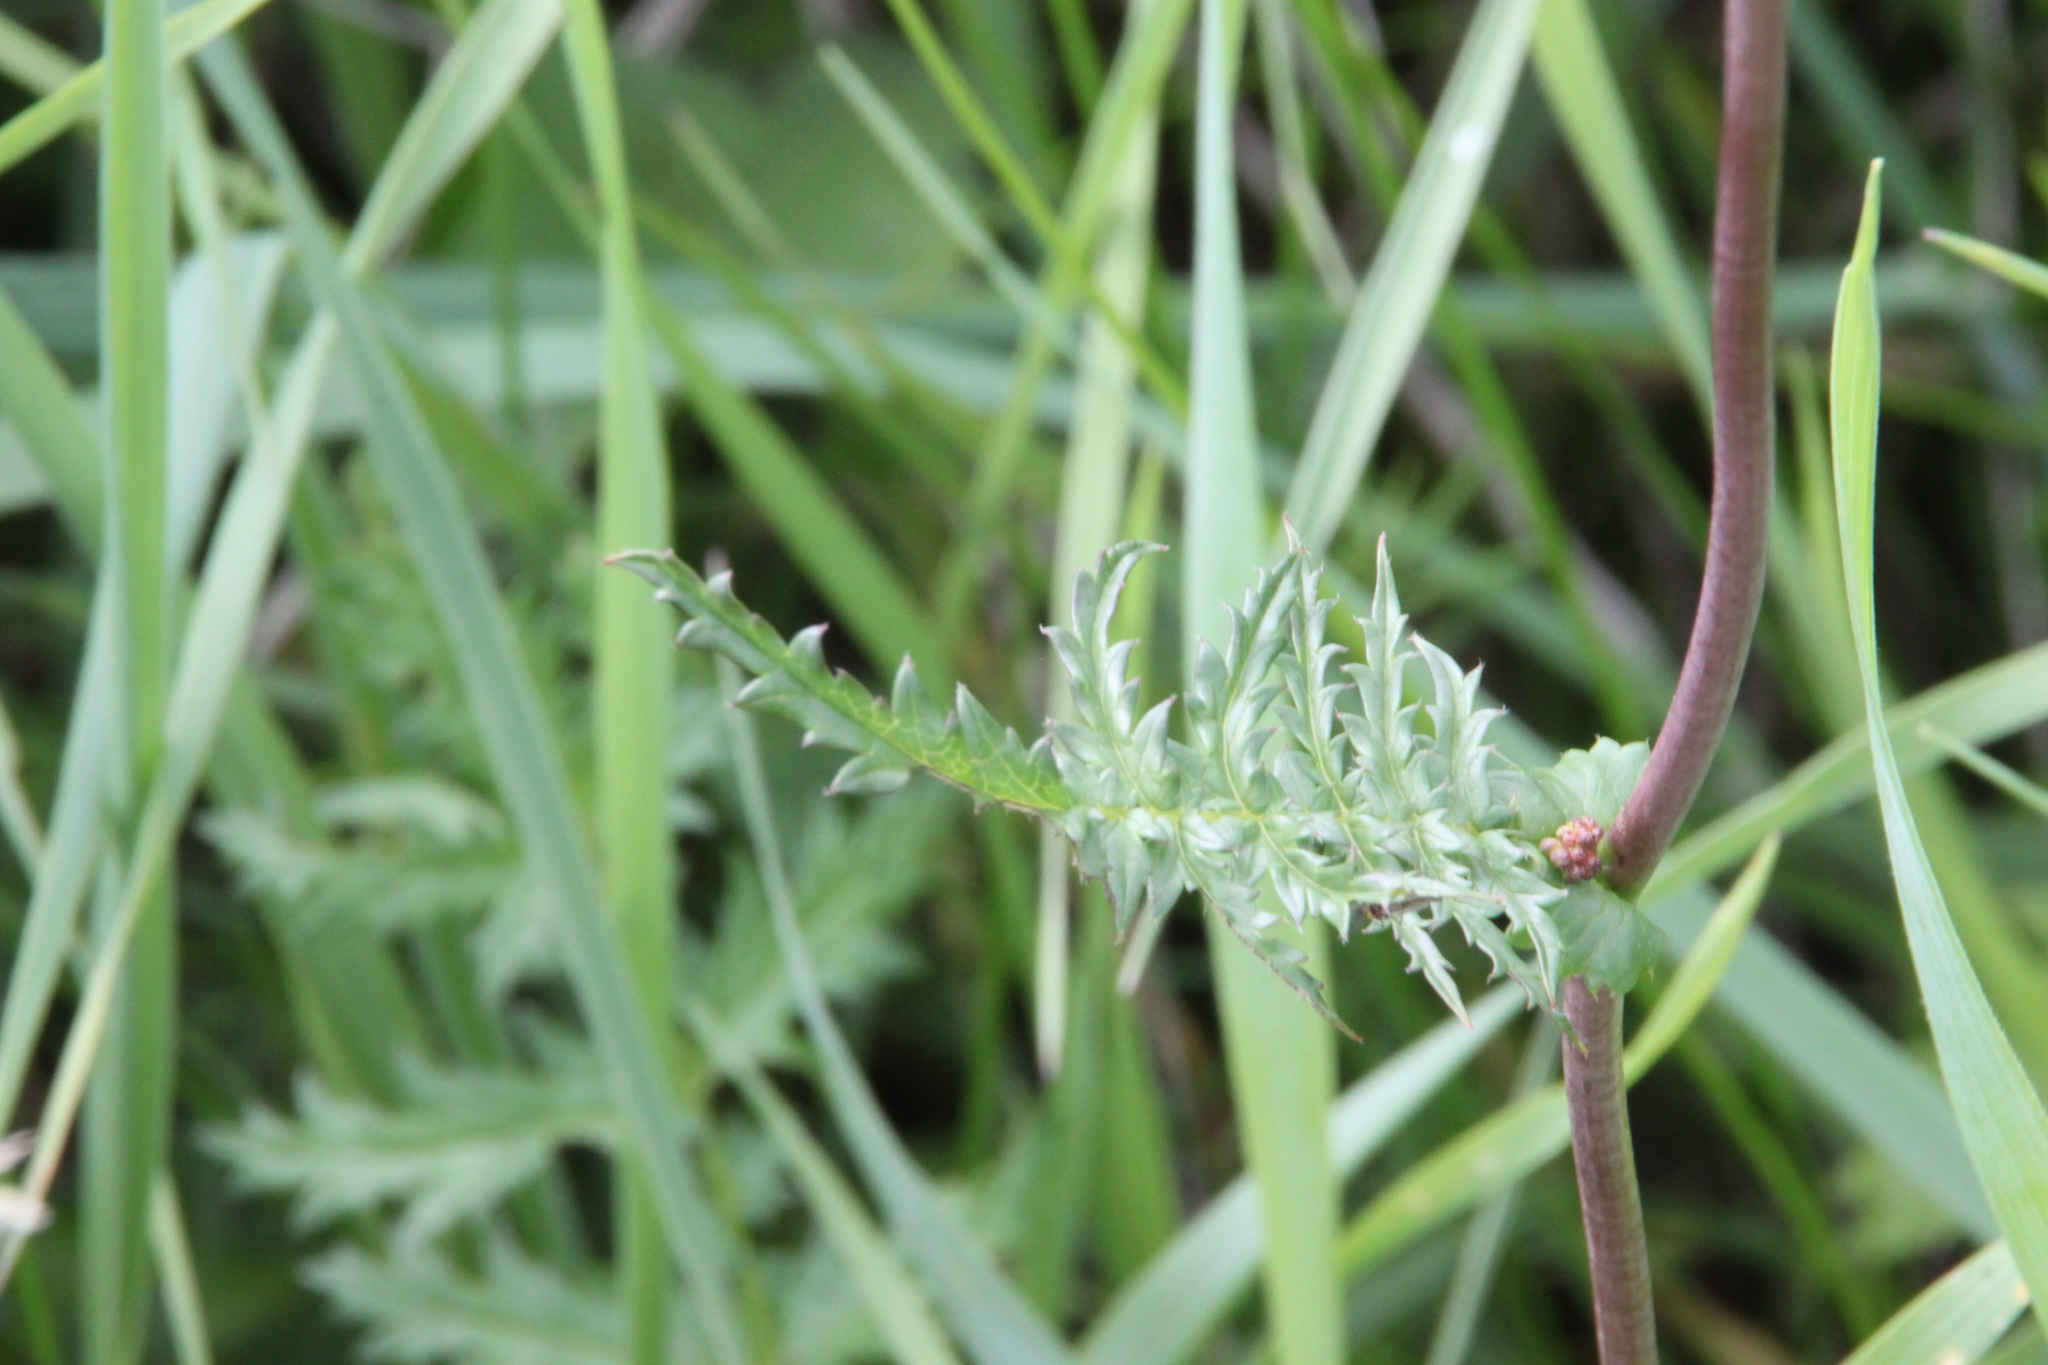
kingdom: Plantae
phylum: Tracheophyta
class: Magnoliopsida
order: Rosales
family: Rosaceae
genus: Filipendula
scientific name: Filipendula vulgaris
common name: Dropwort
